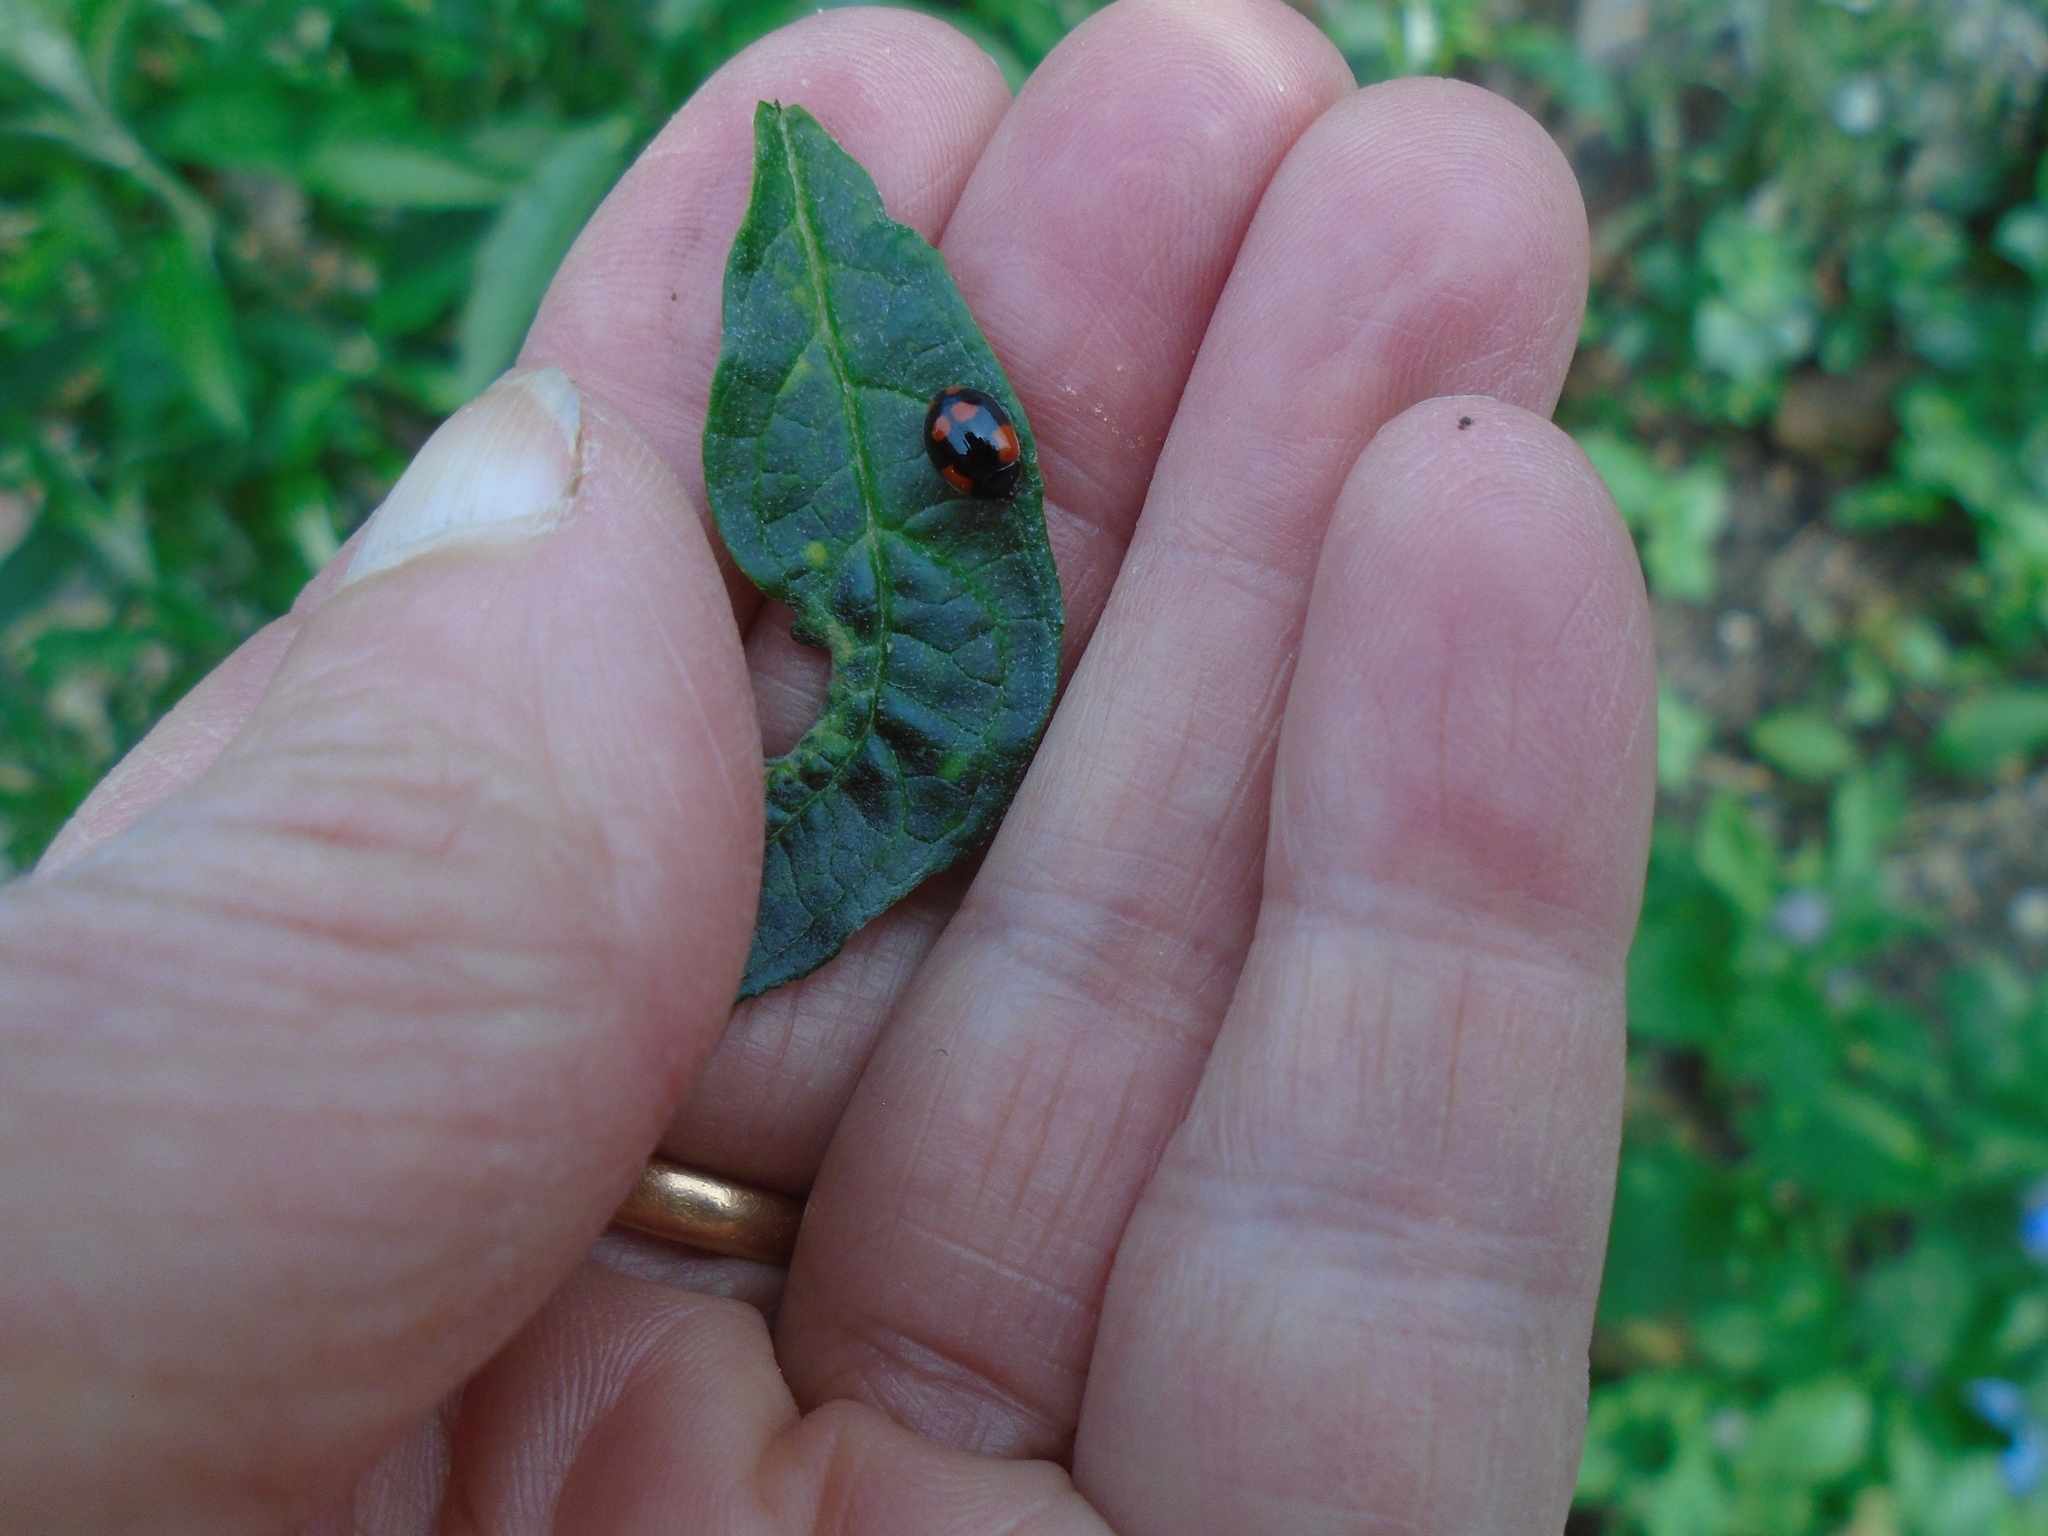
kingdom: Animalia
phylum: Arthropoda
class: Insecta
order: Coleoptera
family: Coccinellidae
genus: Adalia
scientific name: Adalia bipunctata
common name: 2-spot ladybird
